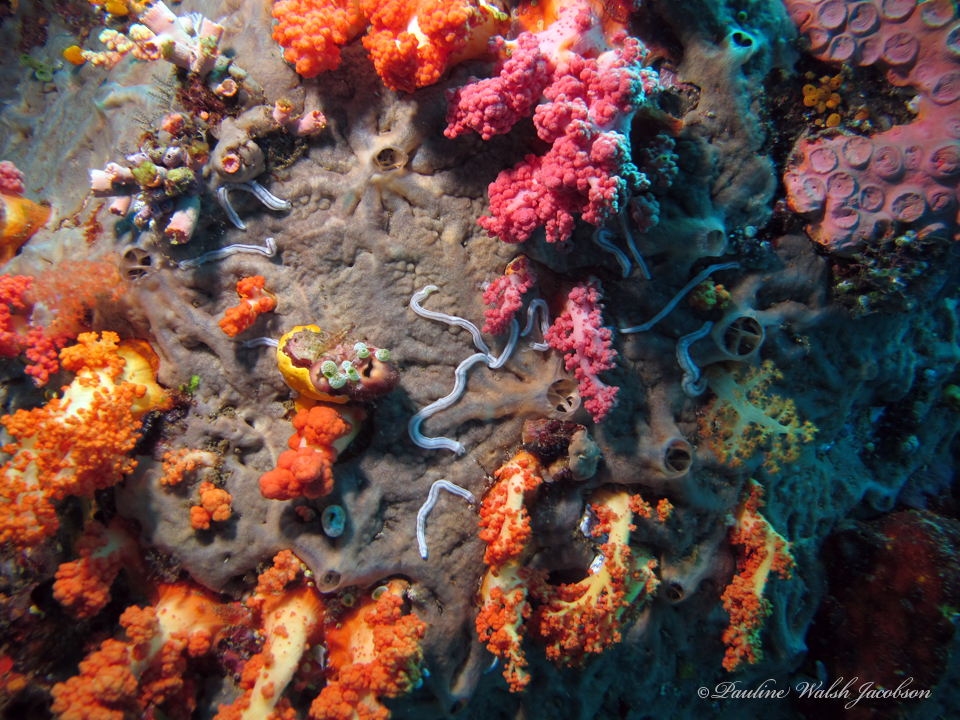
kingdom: Animalia
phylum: Echinodermata
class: Holothuroidea
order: Apodida
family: Synaptidae
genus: Synaptula
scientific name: Synaptula lamperti
